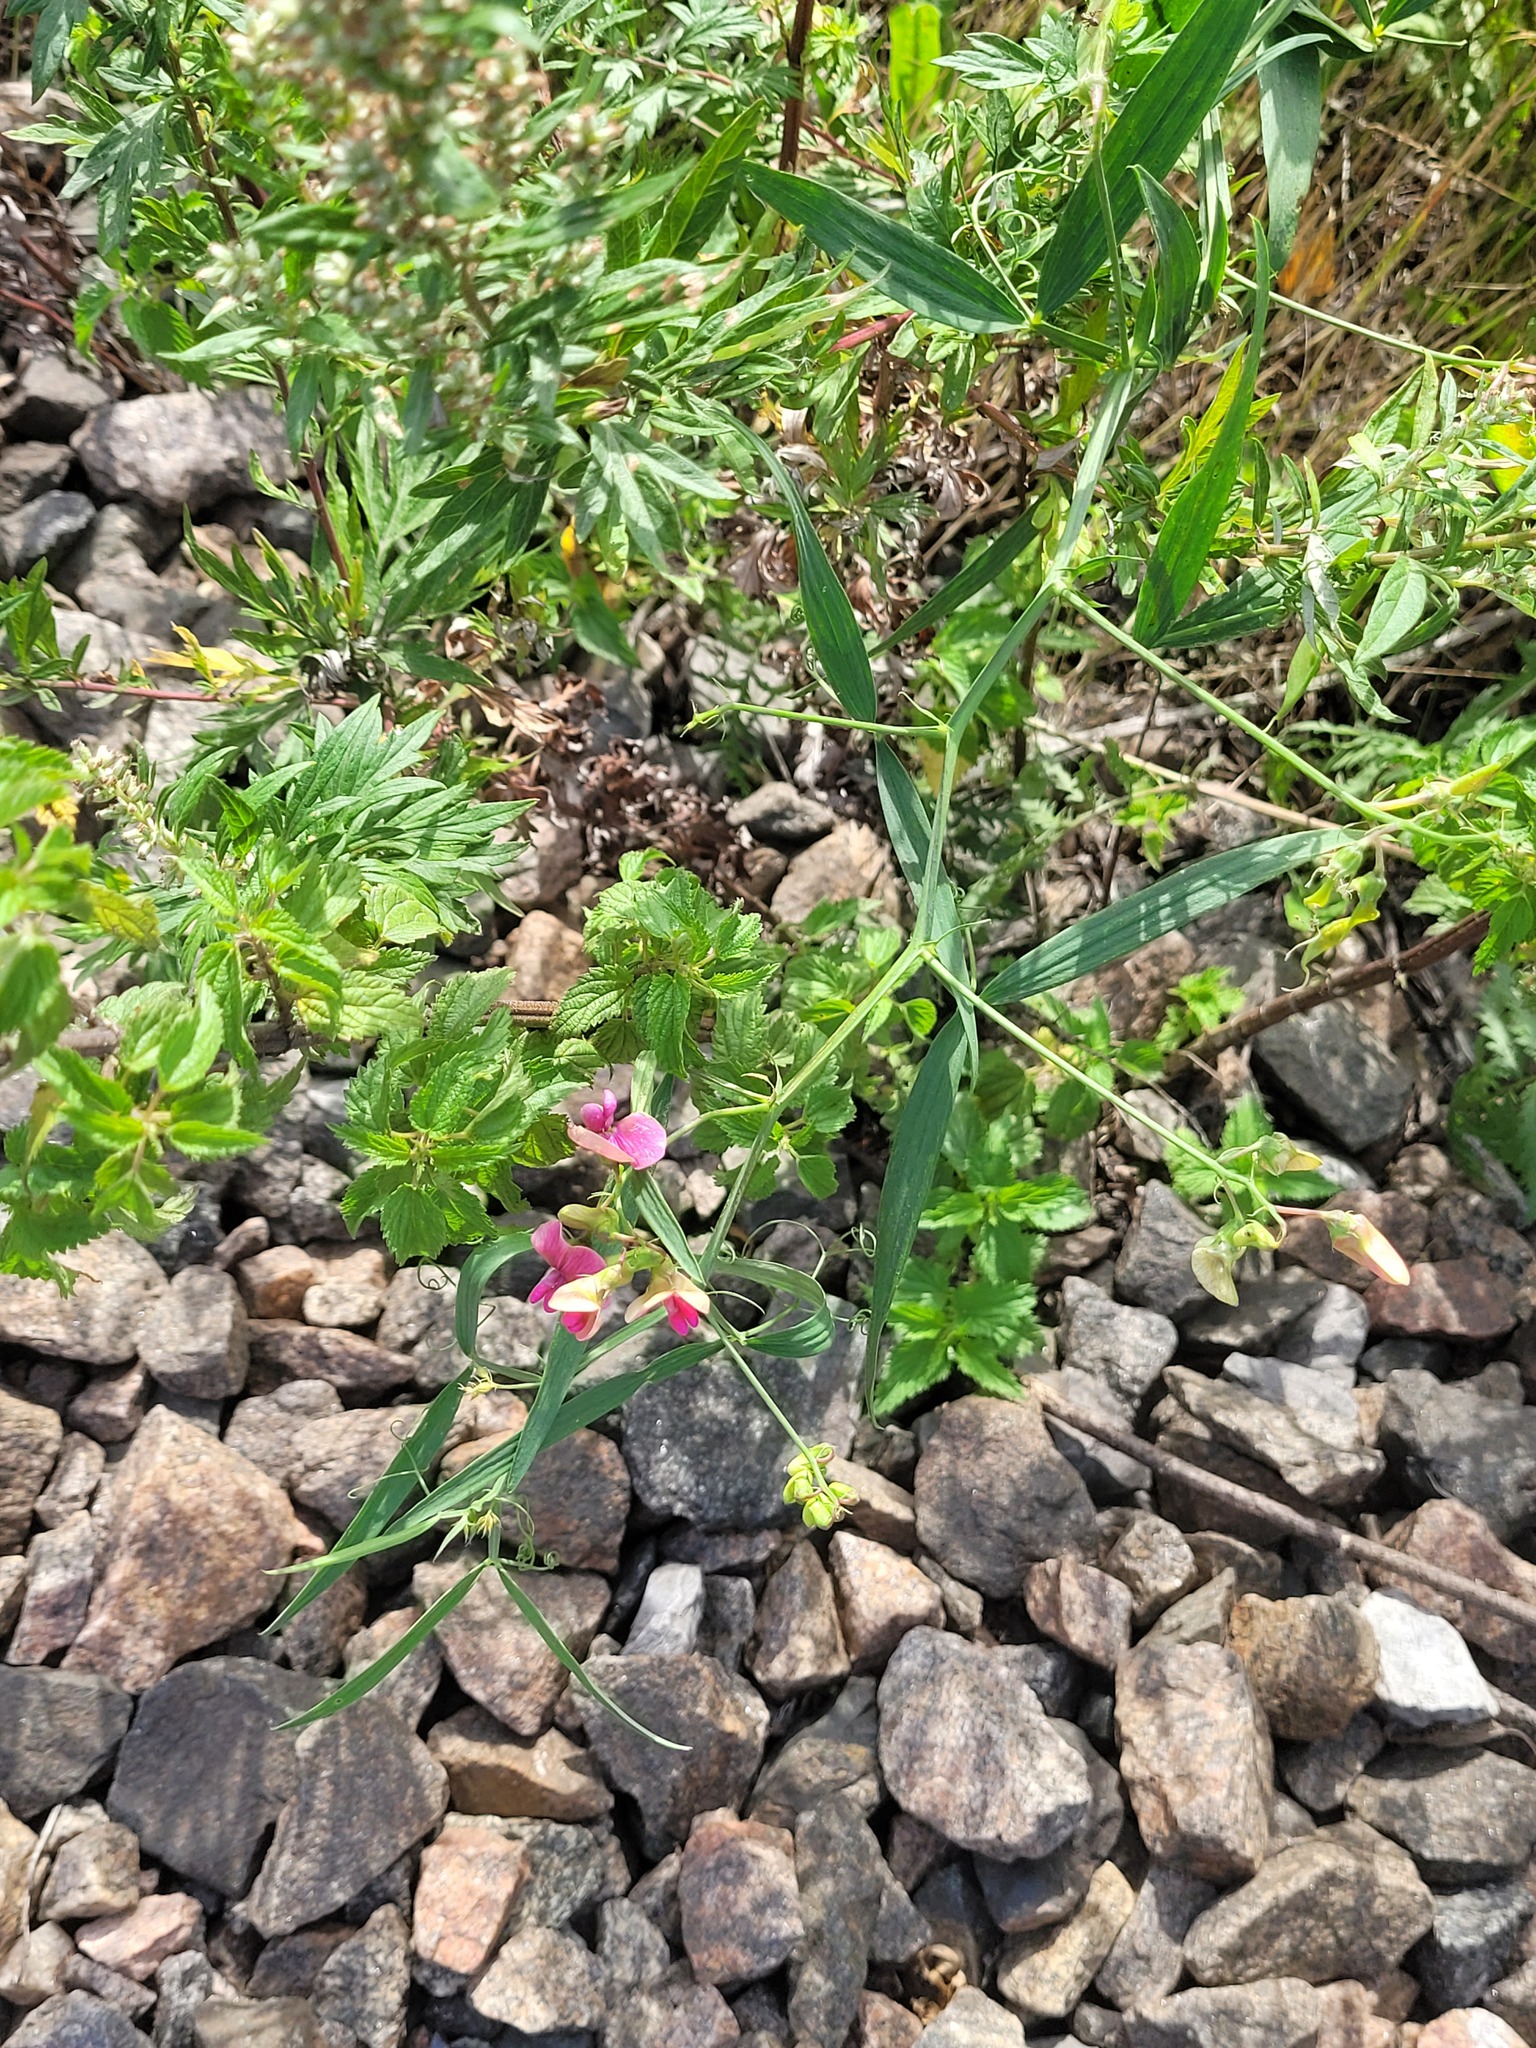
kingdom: Plantae
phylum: Tracheophyta
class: Magnoliopsida
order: Fabales
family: Fabaceae
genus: Lathyrus
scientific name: Lathyrus sylvestris
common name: Flat pea
